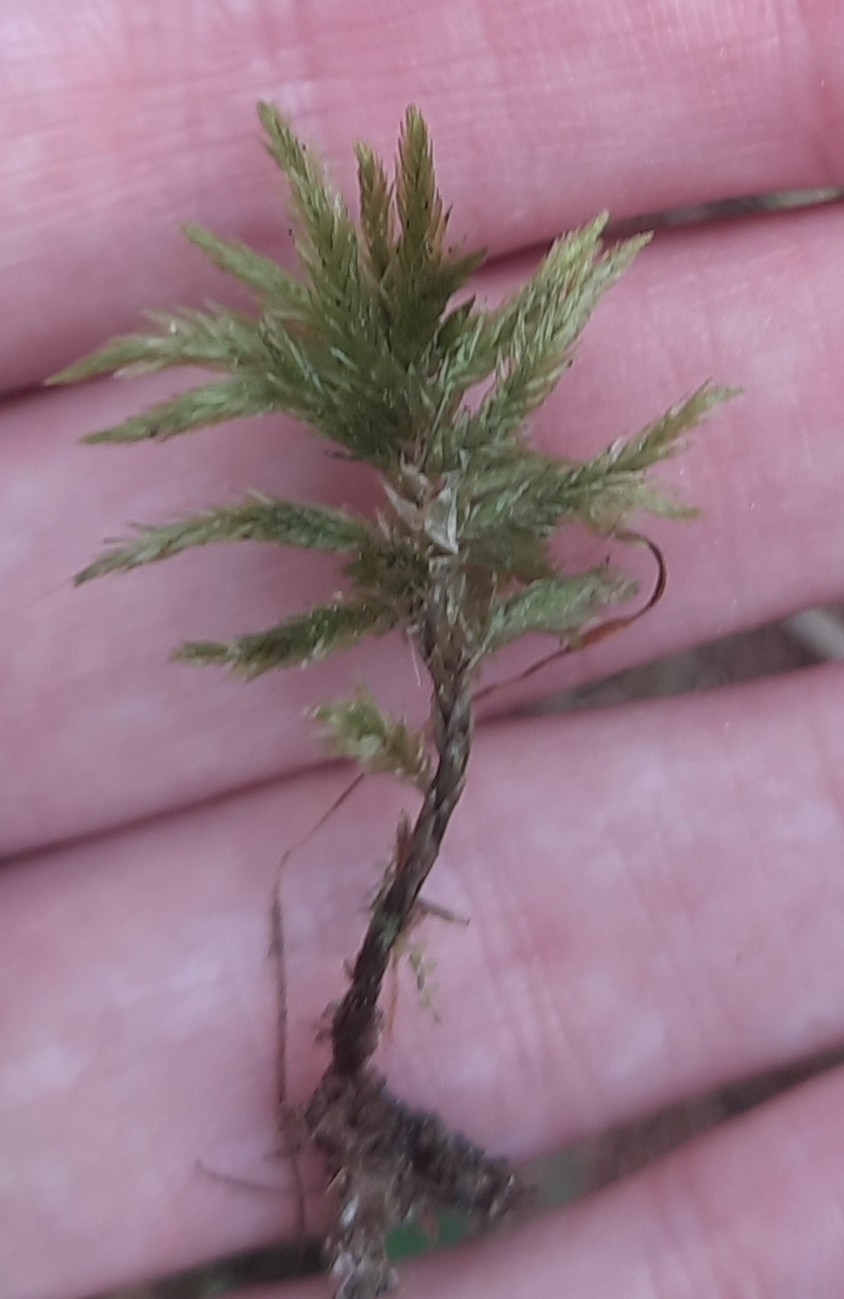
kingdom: Plantae
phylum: Bryophyta
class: Bryopsida
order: Hypnales
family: Climaciaceae
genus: Climacium
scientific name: Climacium dendroides
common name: Northern tree moss
